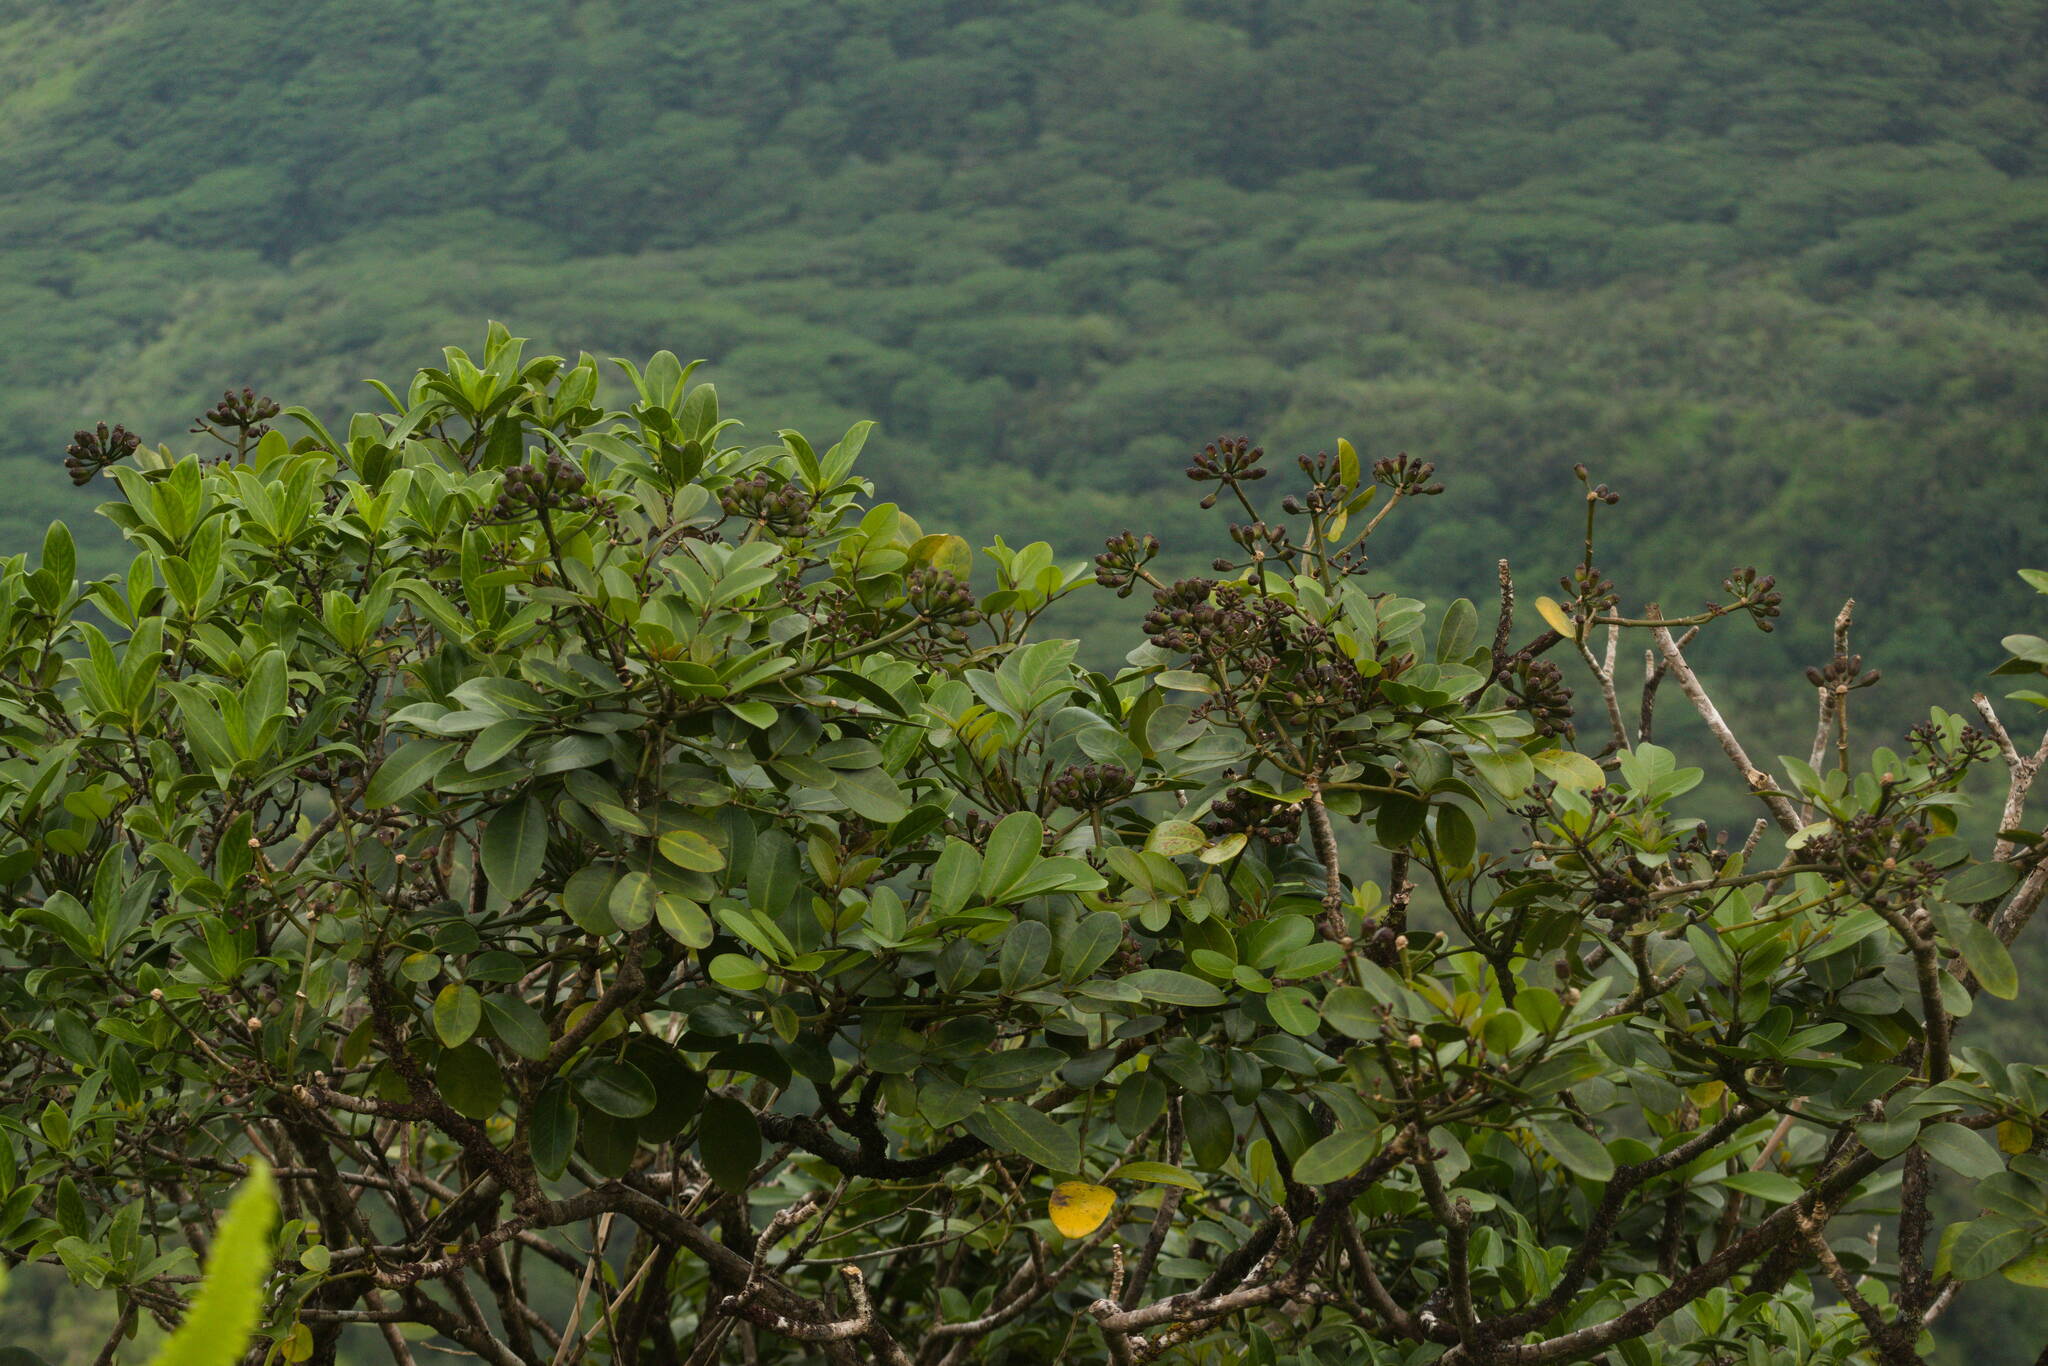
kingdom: Plantae
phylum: Tracheophyta
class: Magnoliopsida
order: Apiales
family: Araliaceae
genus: Polyscias
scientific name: Polyscias oahuensis
